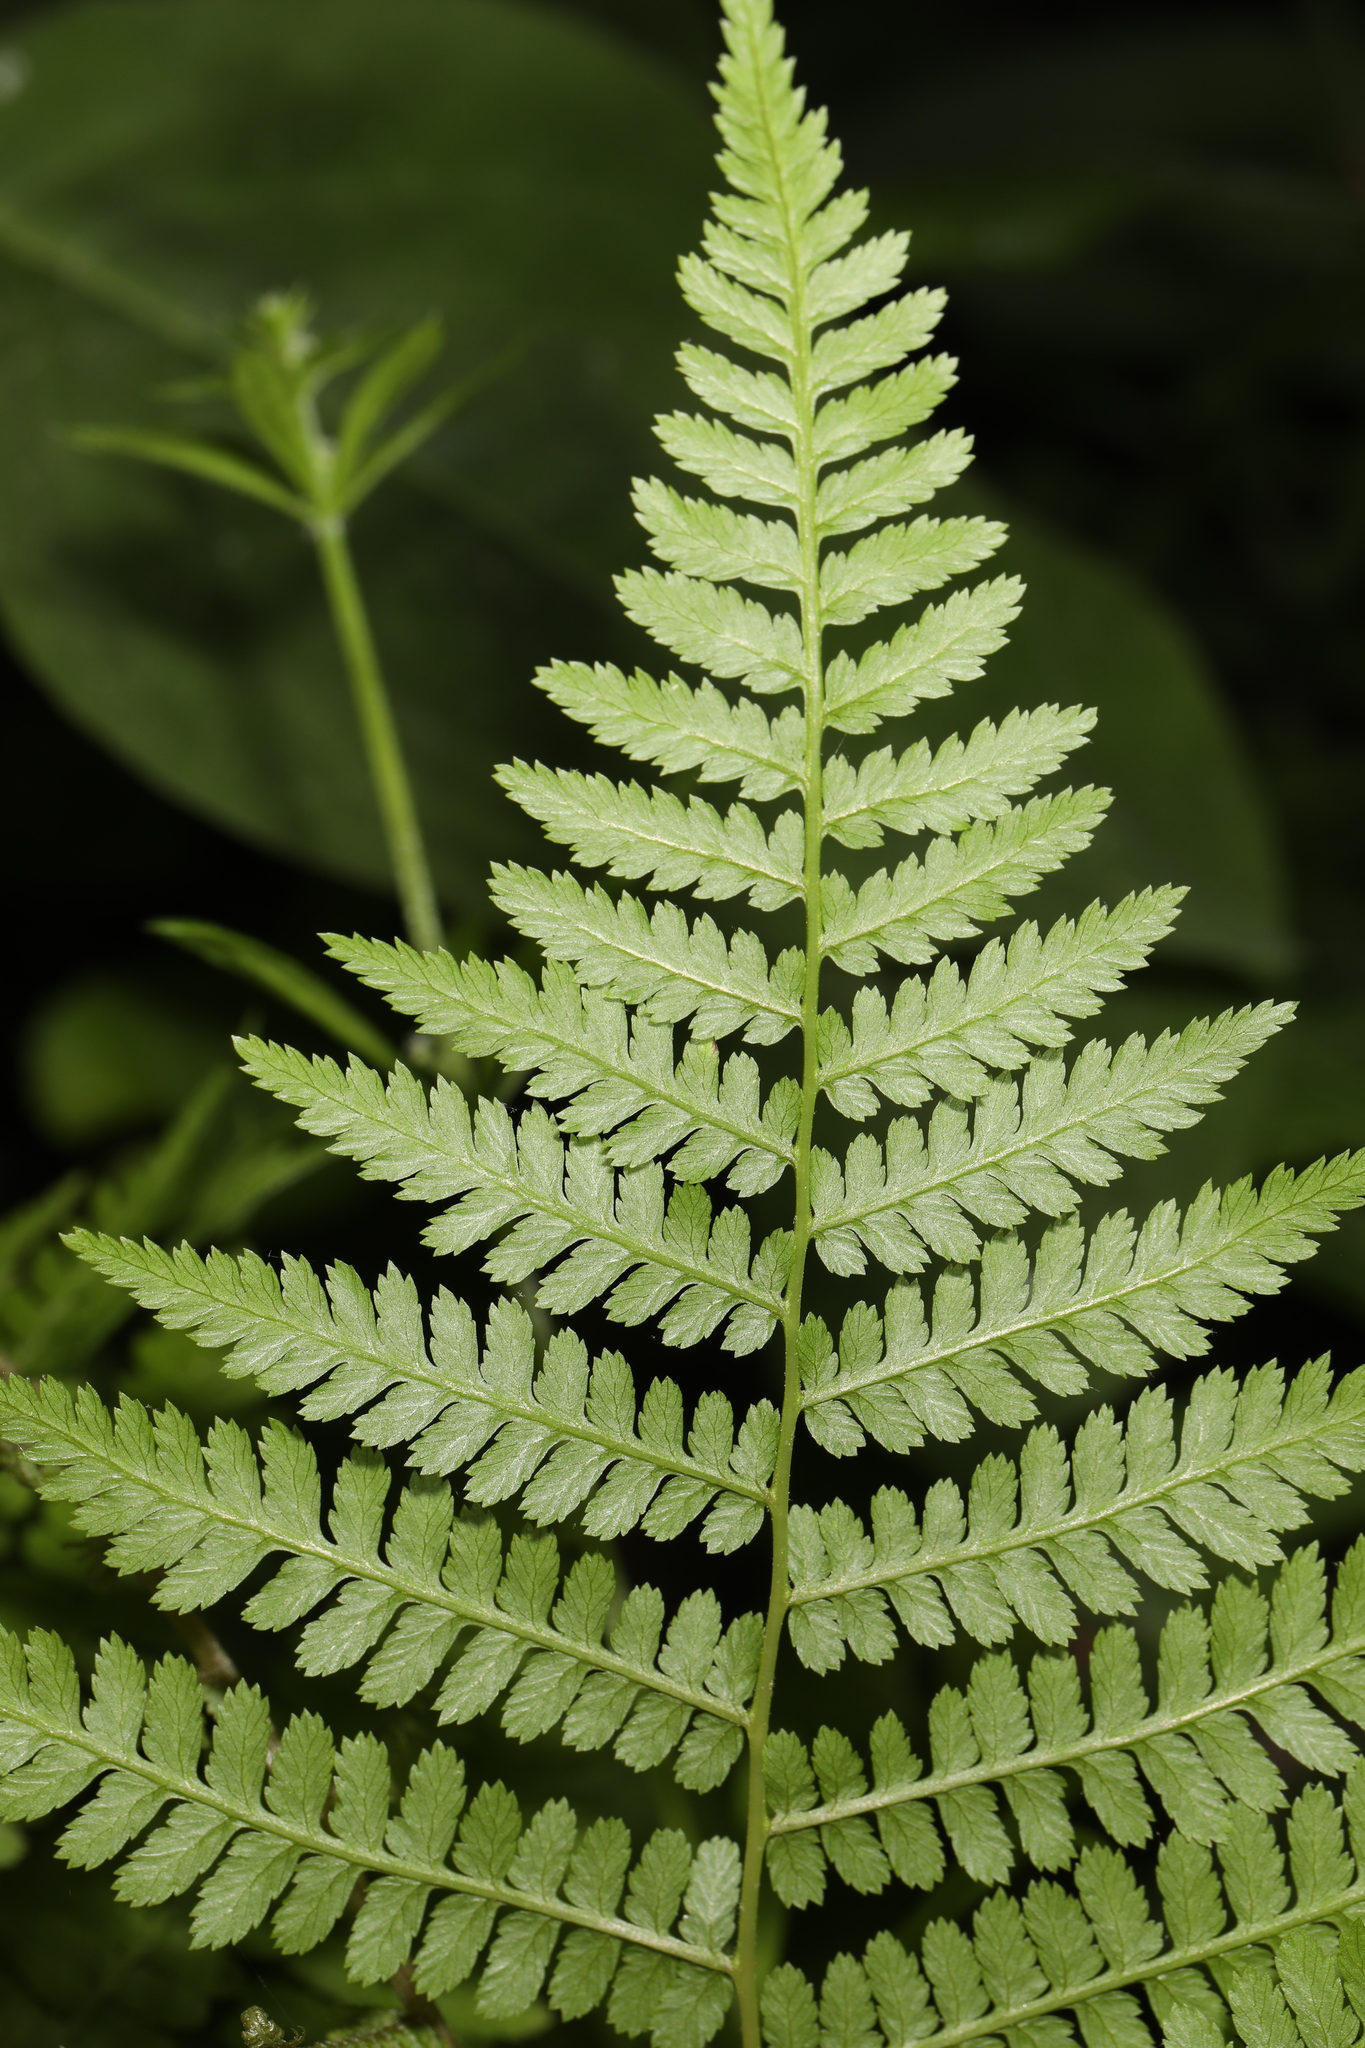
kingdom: Plantae
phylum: Tracheophyta
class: Polypodiopsida
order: Polypodiales
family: Athyriaceae
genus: Athyrium
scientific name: Athyrium asplenioides
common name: Southern lady fern
